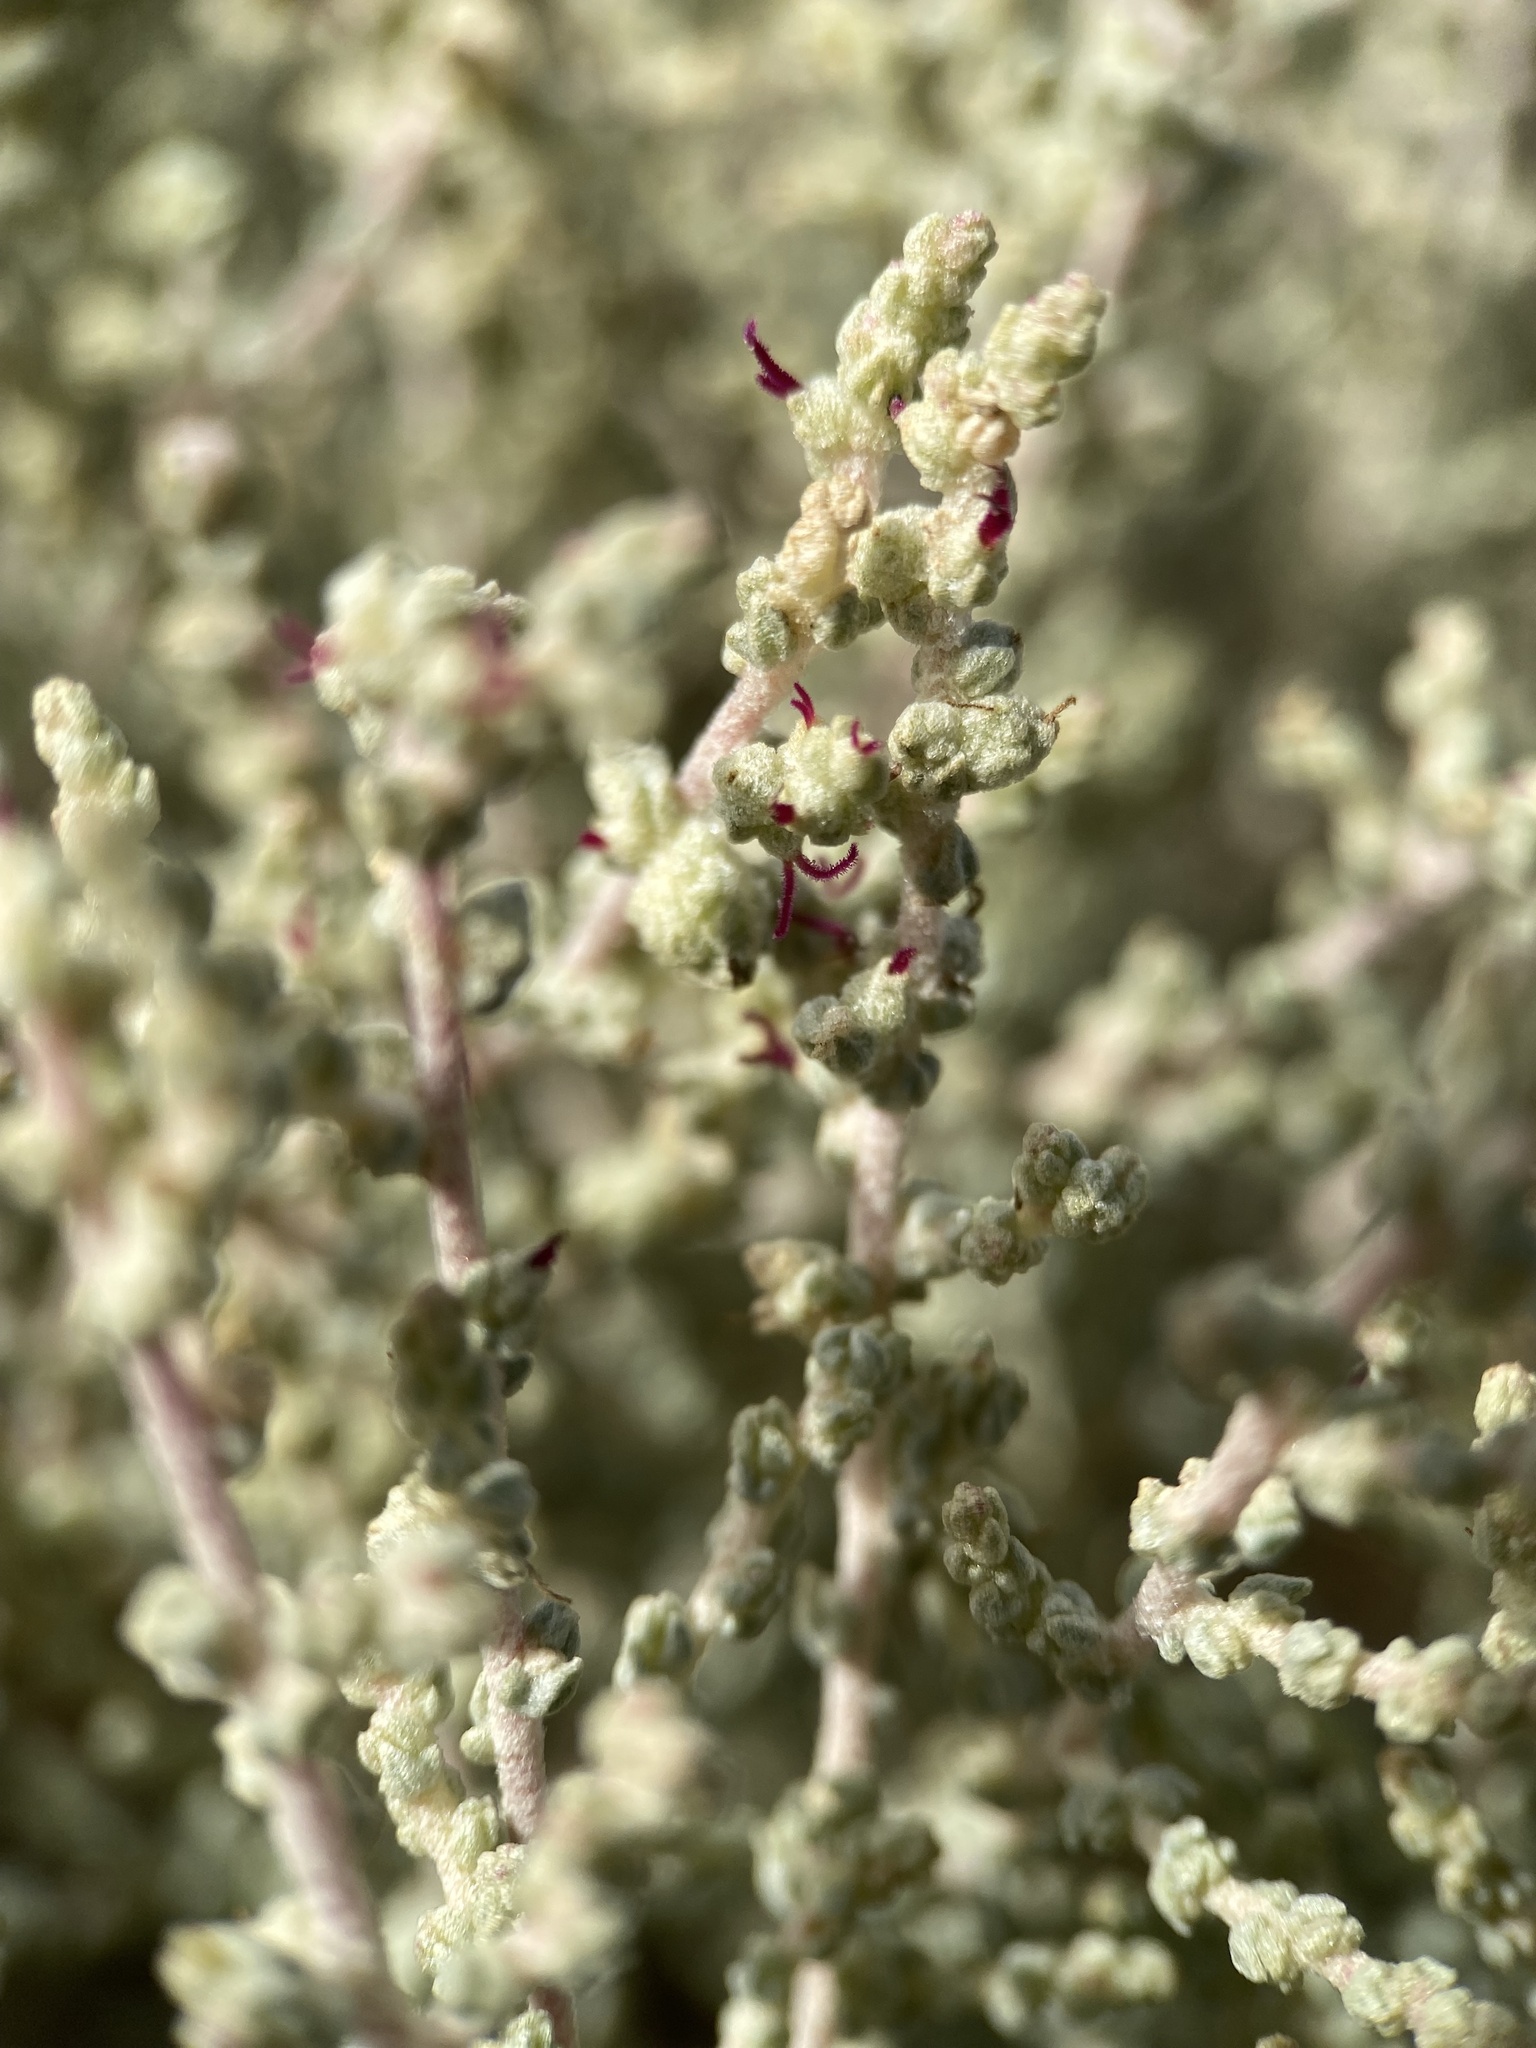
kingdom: Plantae
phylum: Tracheophyta
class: Magnoliopsida
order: Caryophyllales
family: Amaranthaceae
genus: Atriplex
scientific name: Atriplex julacea
